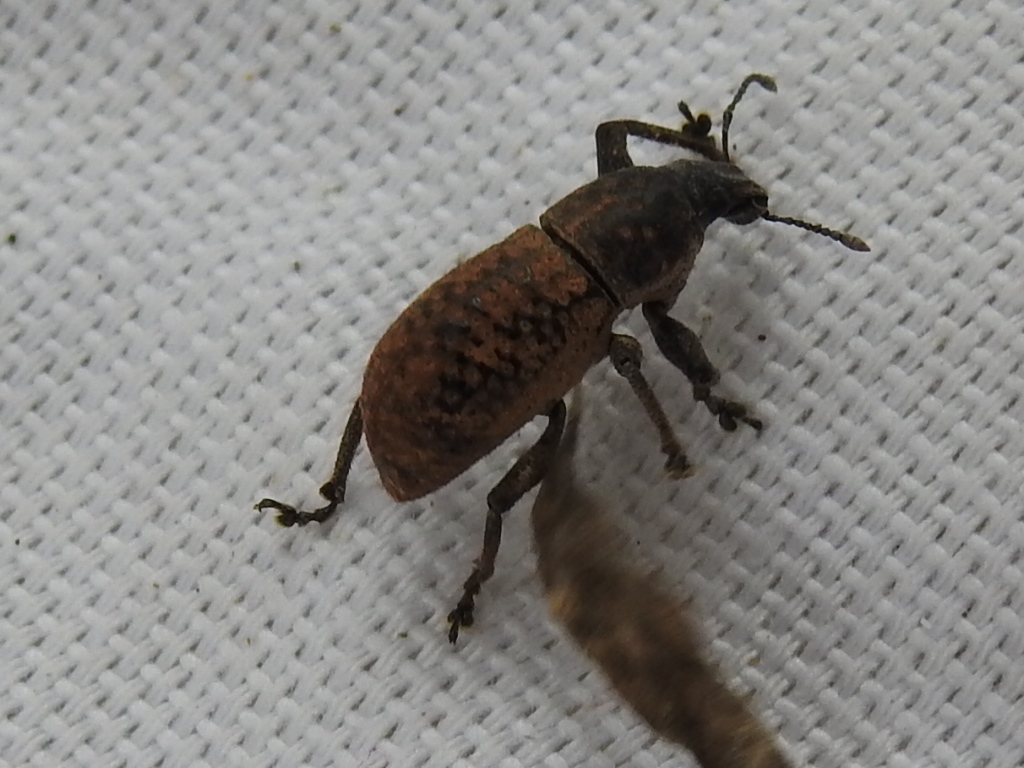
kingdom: Animalia
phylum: Arthropoda
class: Insecta
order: Coleoptera
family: Curculionidae
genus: Epicaerus
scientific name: Epicaerus mexicanus
